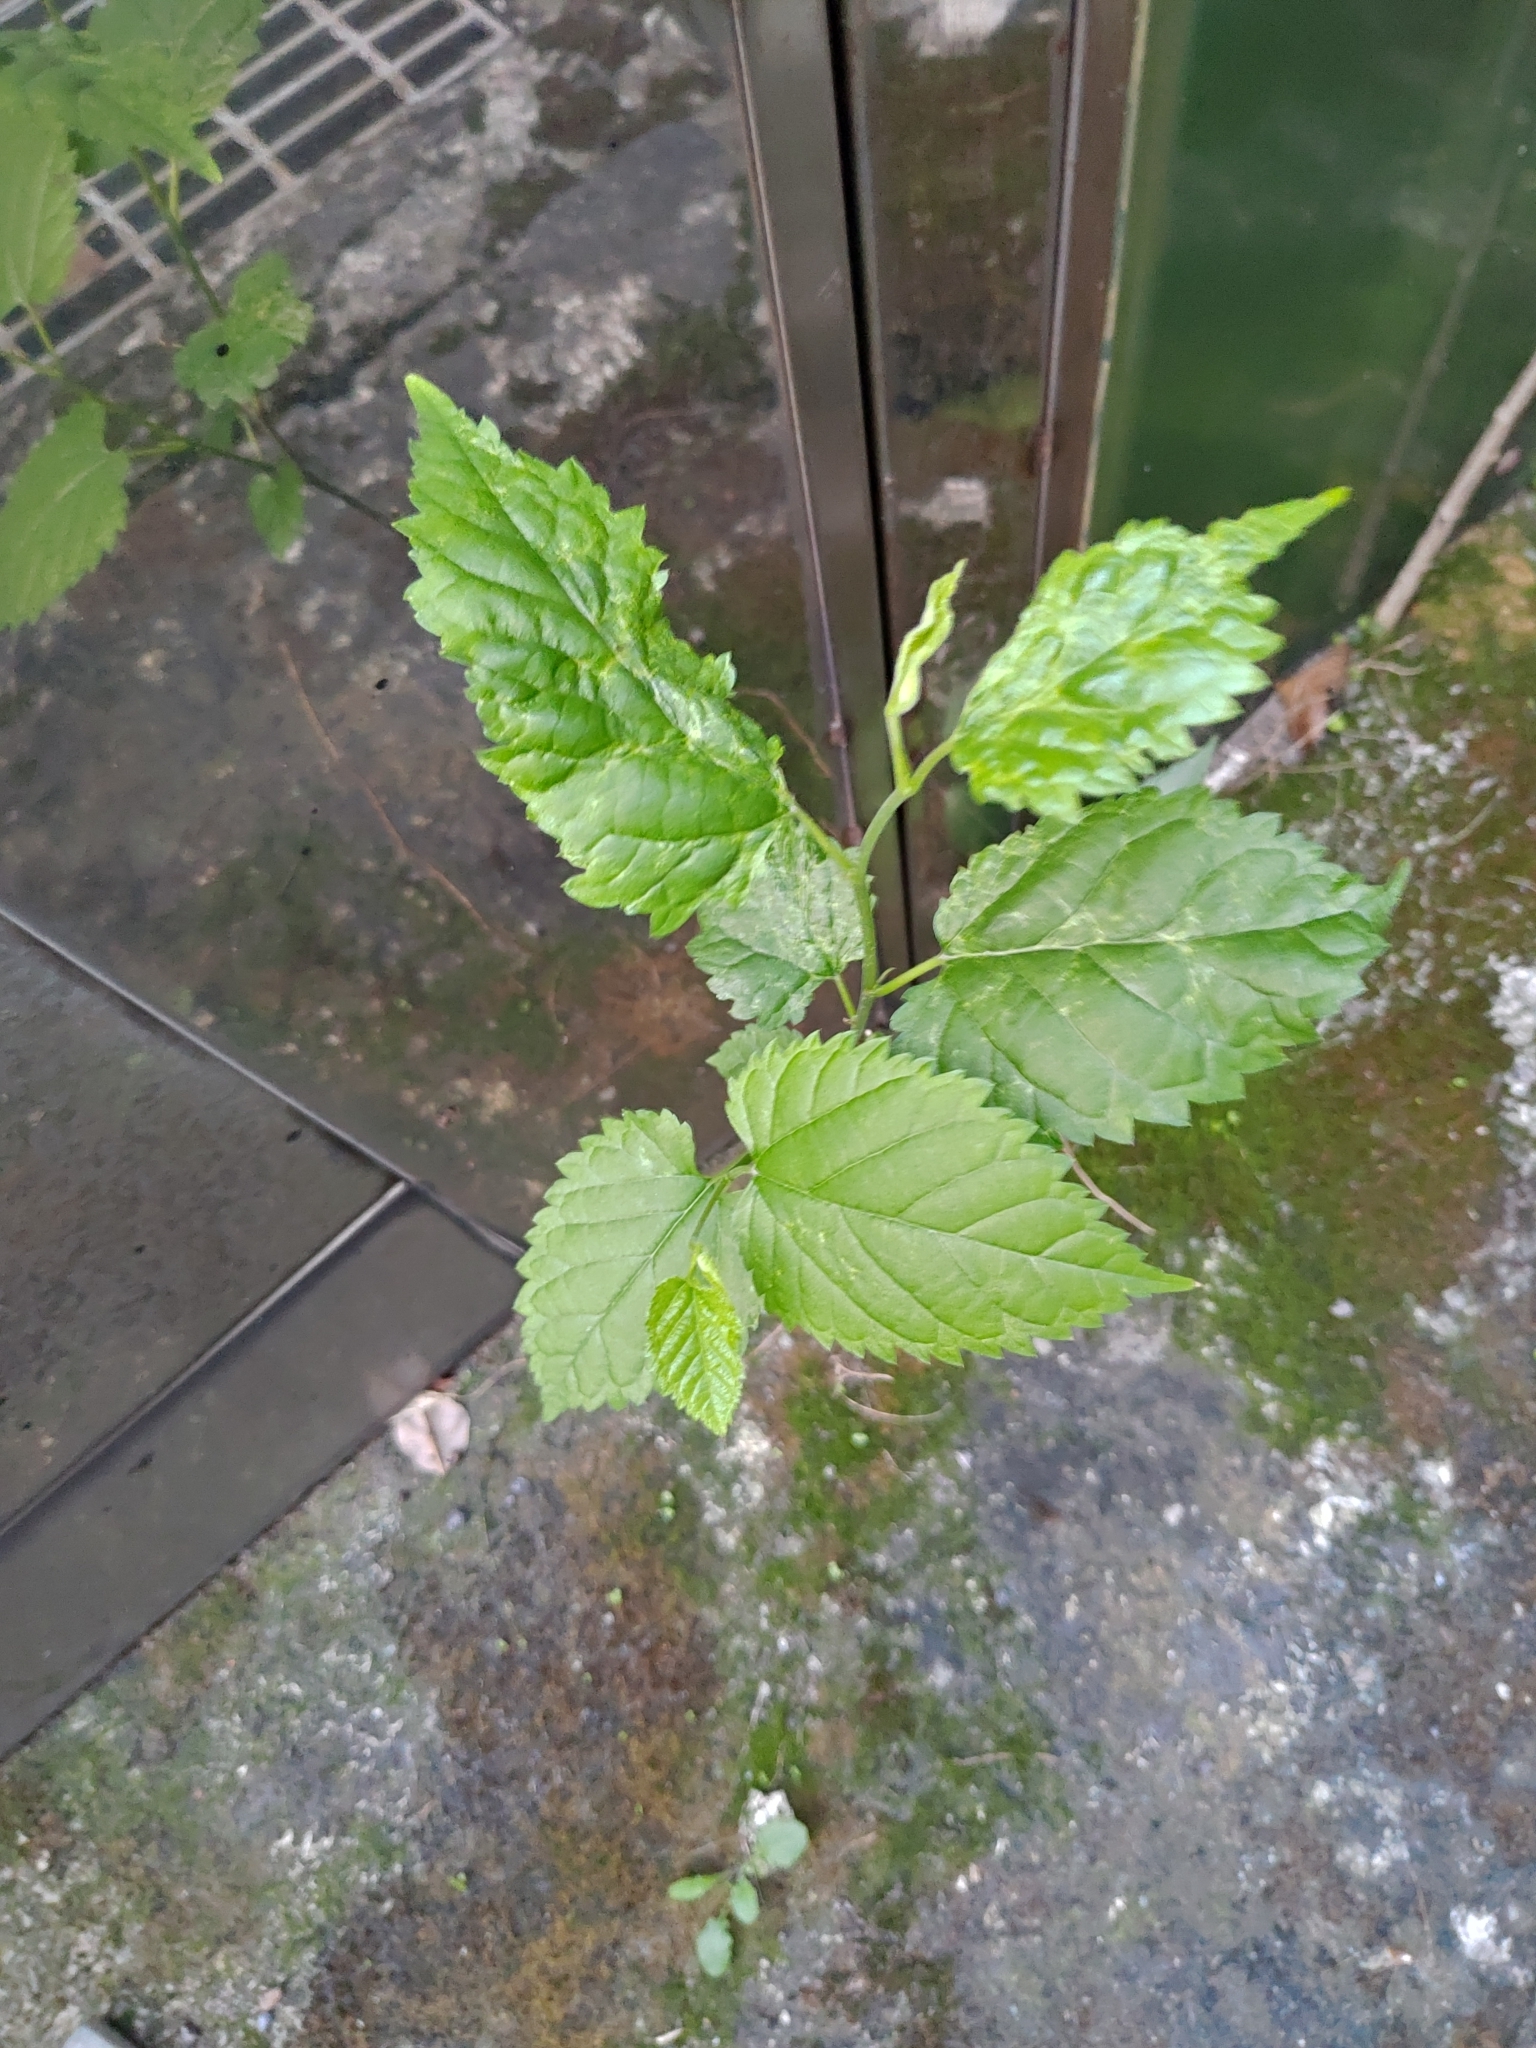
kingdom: Plantae
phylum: Tracheophyta
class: Magnoliopsida
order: Rosales
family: Moraceae
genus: Morus
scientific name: Morus indica
